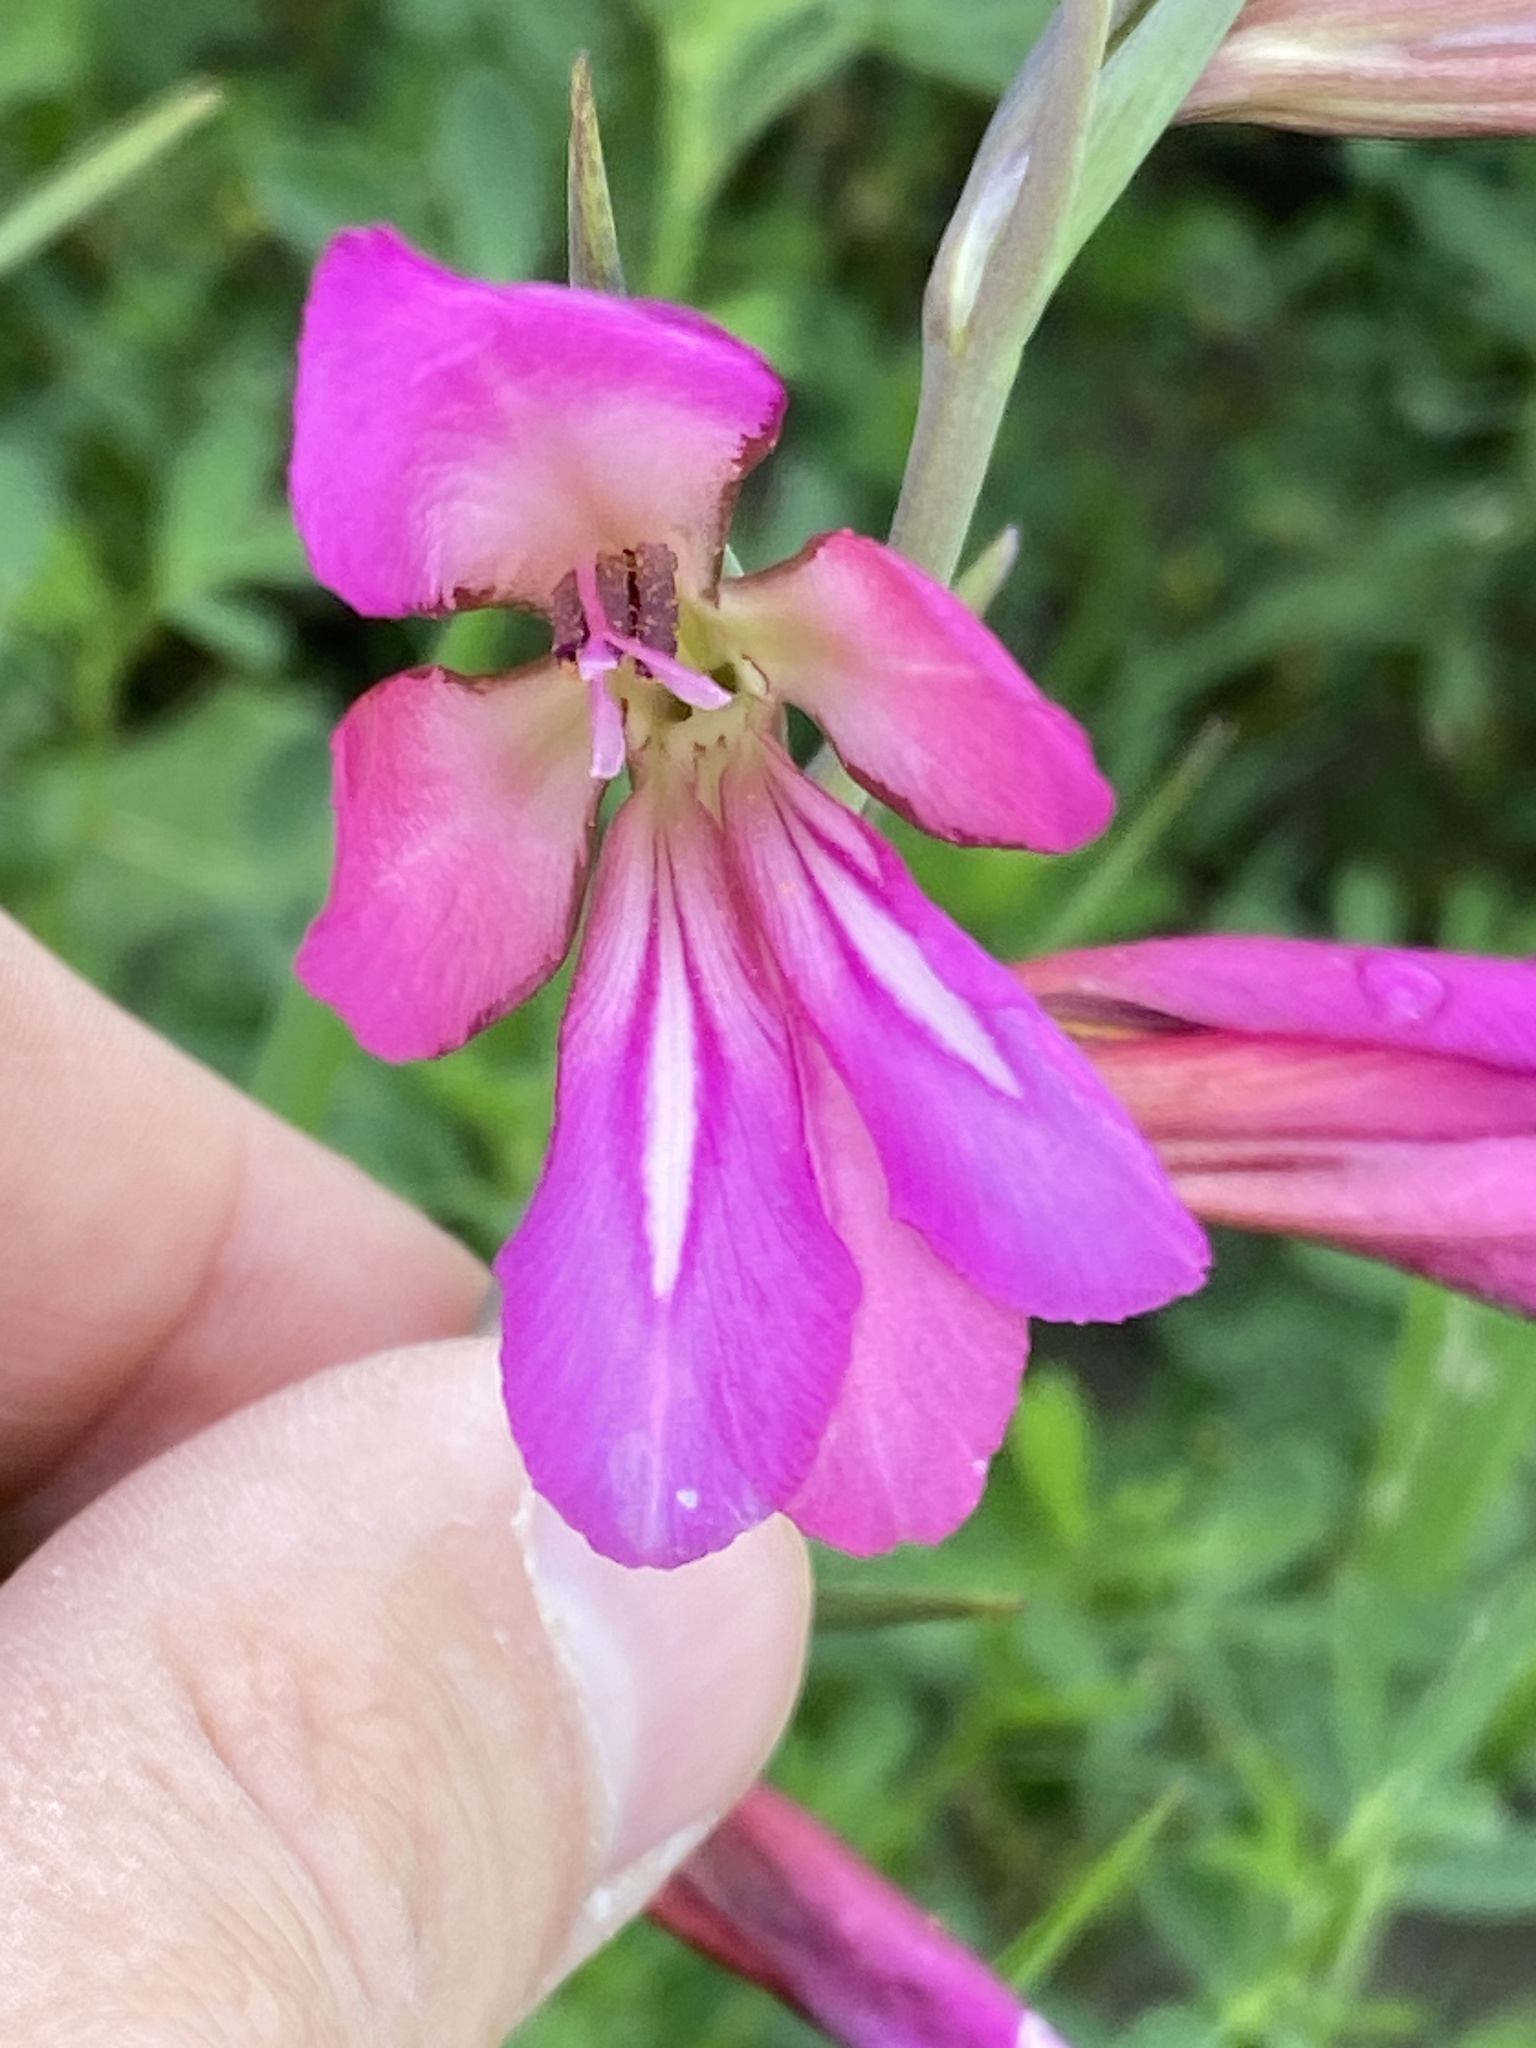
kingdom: Plantae
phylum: Tracheophyta
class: Liliopsida
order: Asparagales
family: Iridaceae
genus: Gladiolus
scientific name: Gladiolus italicus
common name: Field gladiolus
